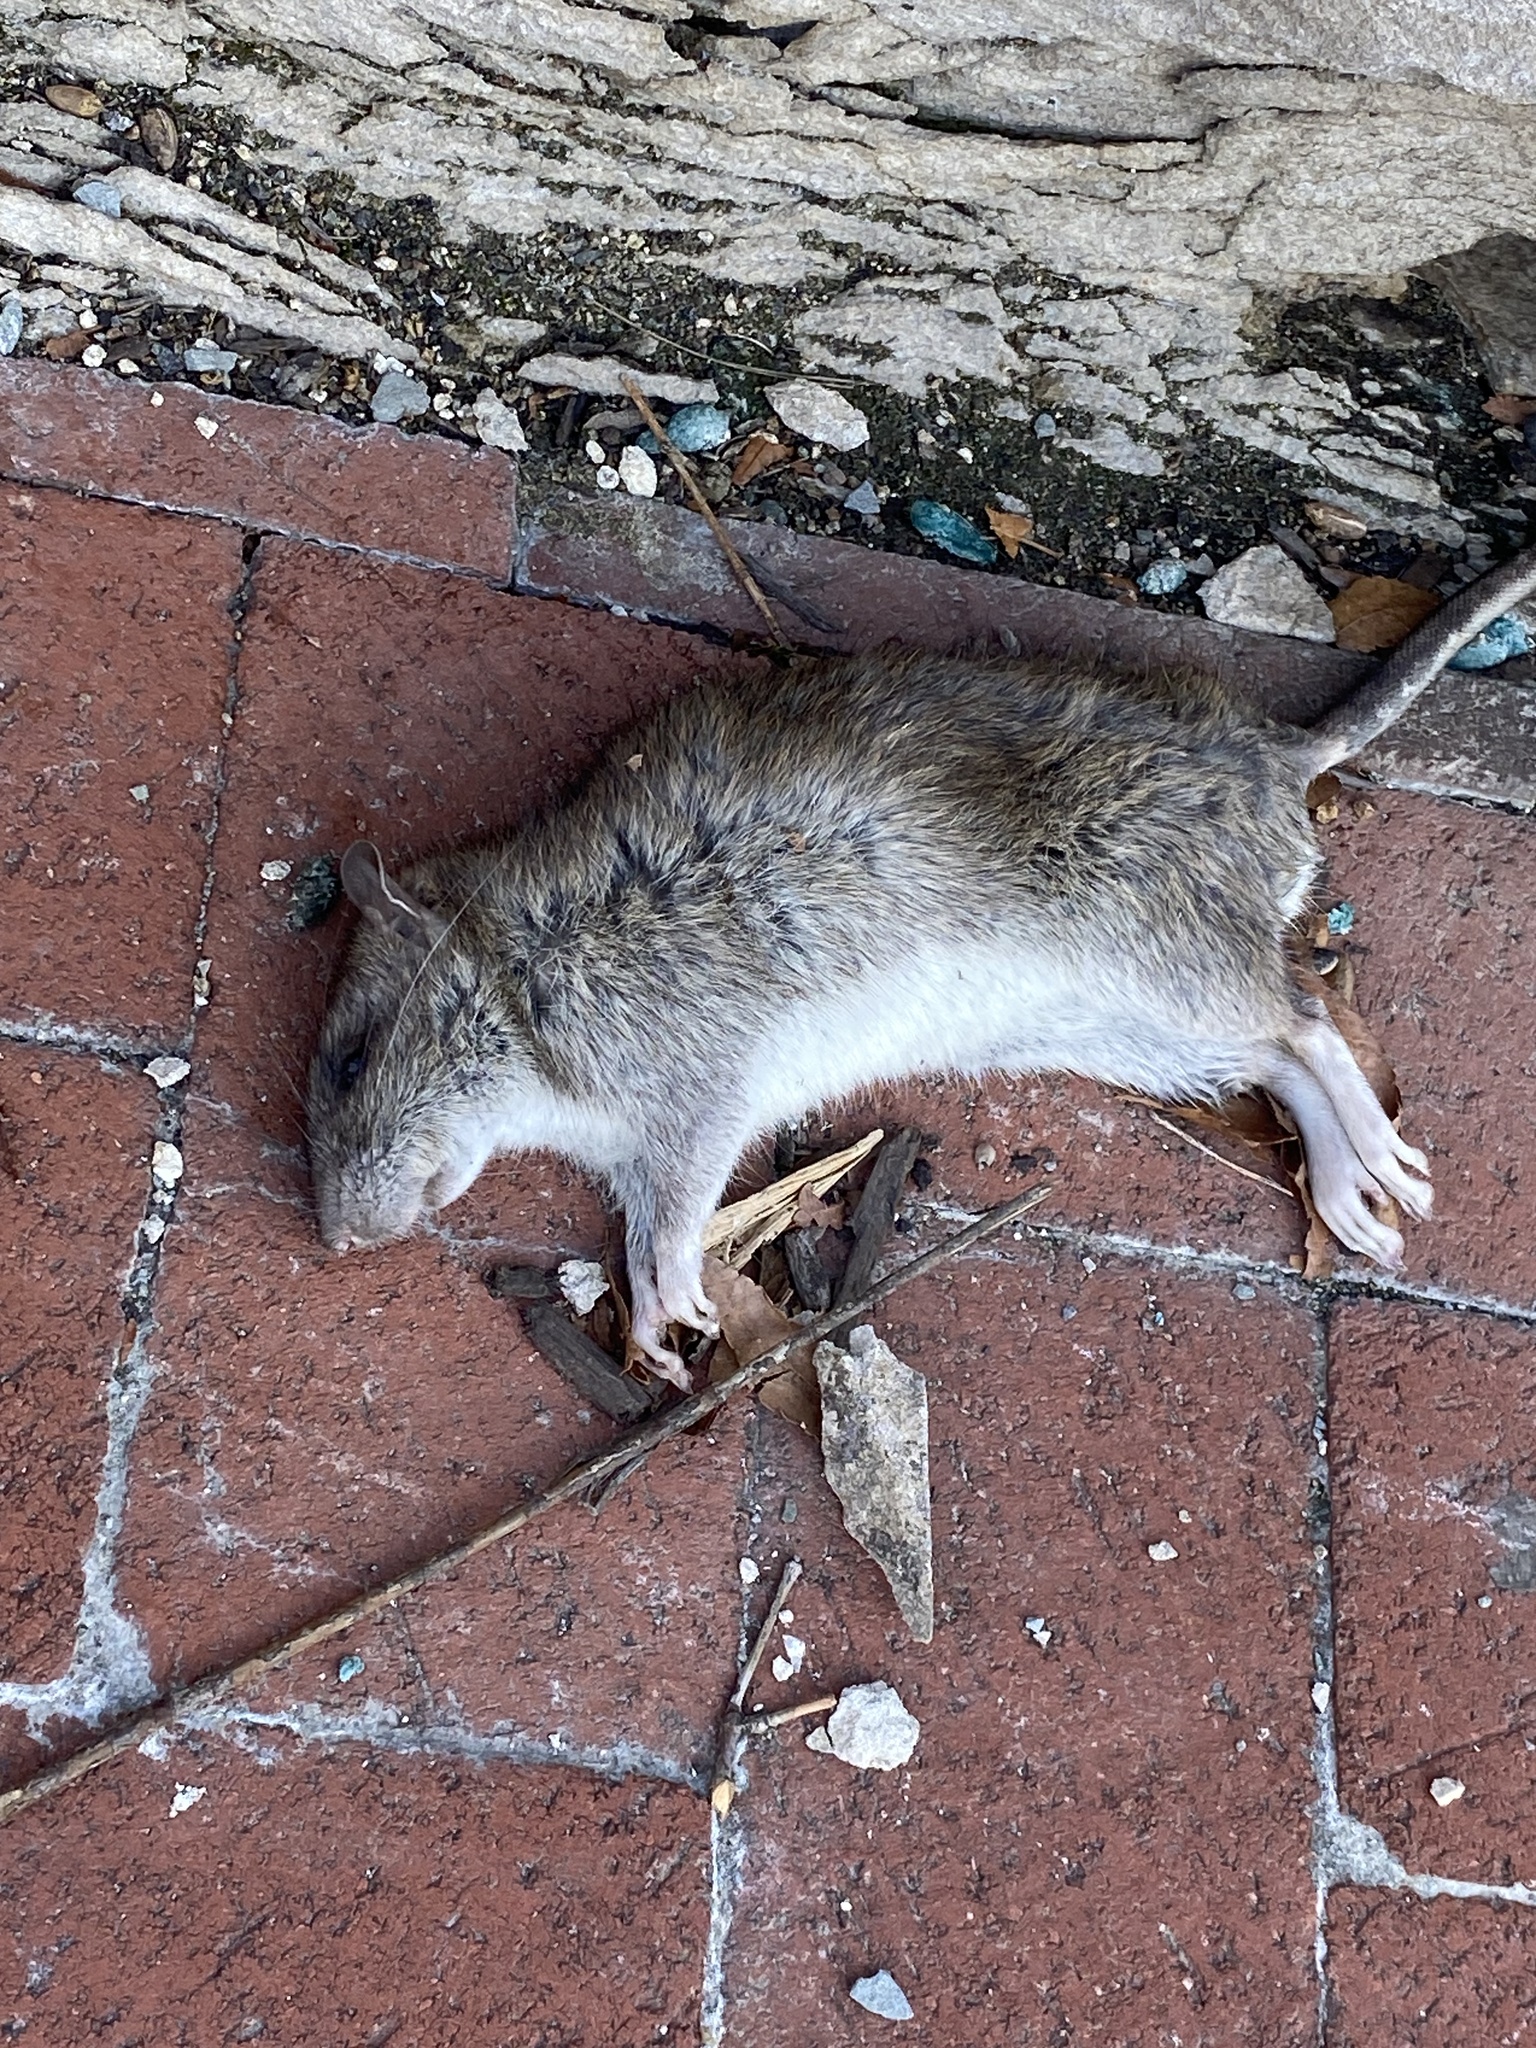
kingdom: Animalia
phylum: Chordata
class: Mammalia
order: Rodentia
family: Muridae
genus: Rattus
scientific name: Rattus norvegicus
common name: Brown rat
